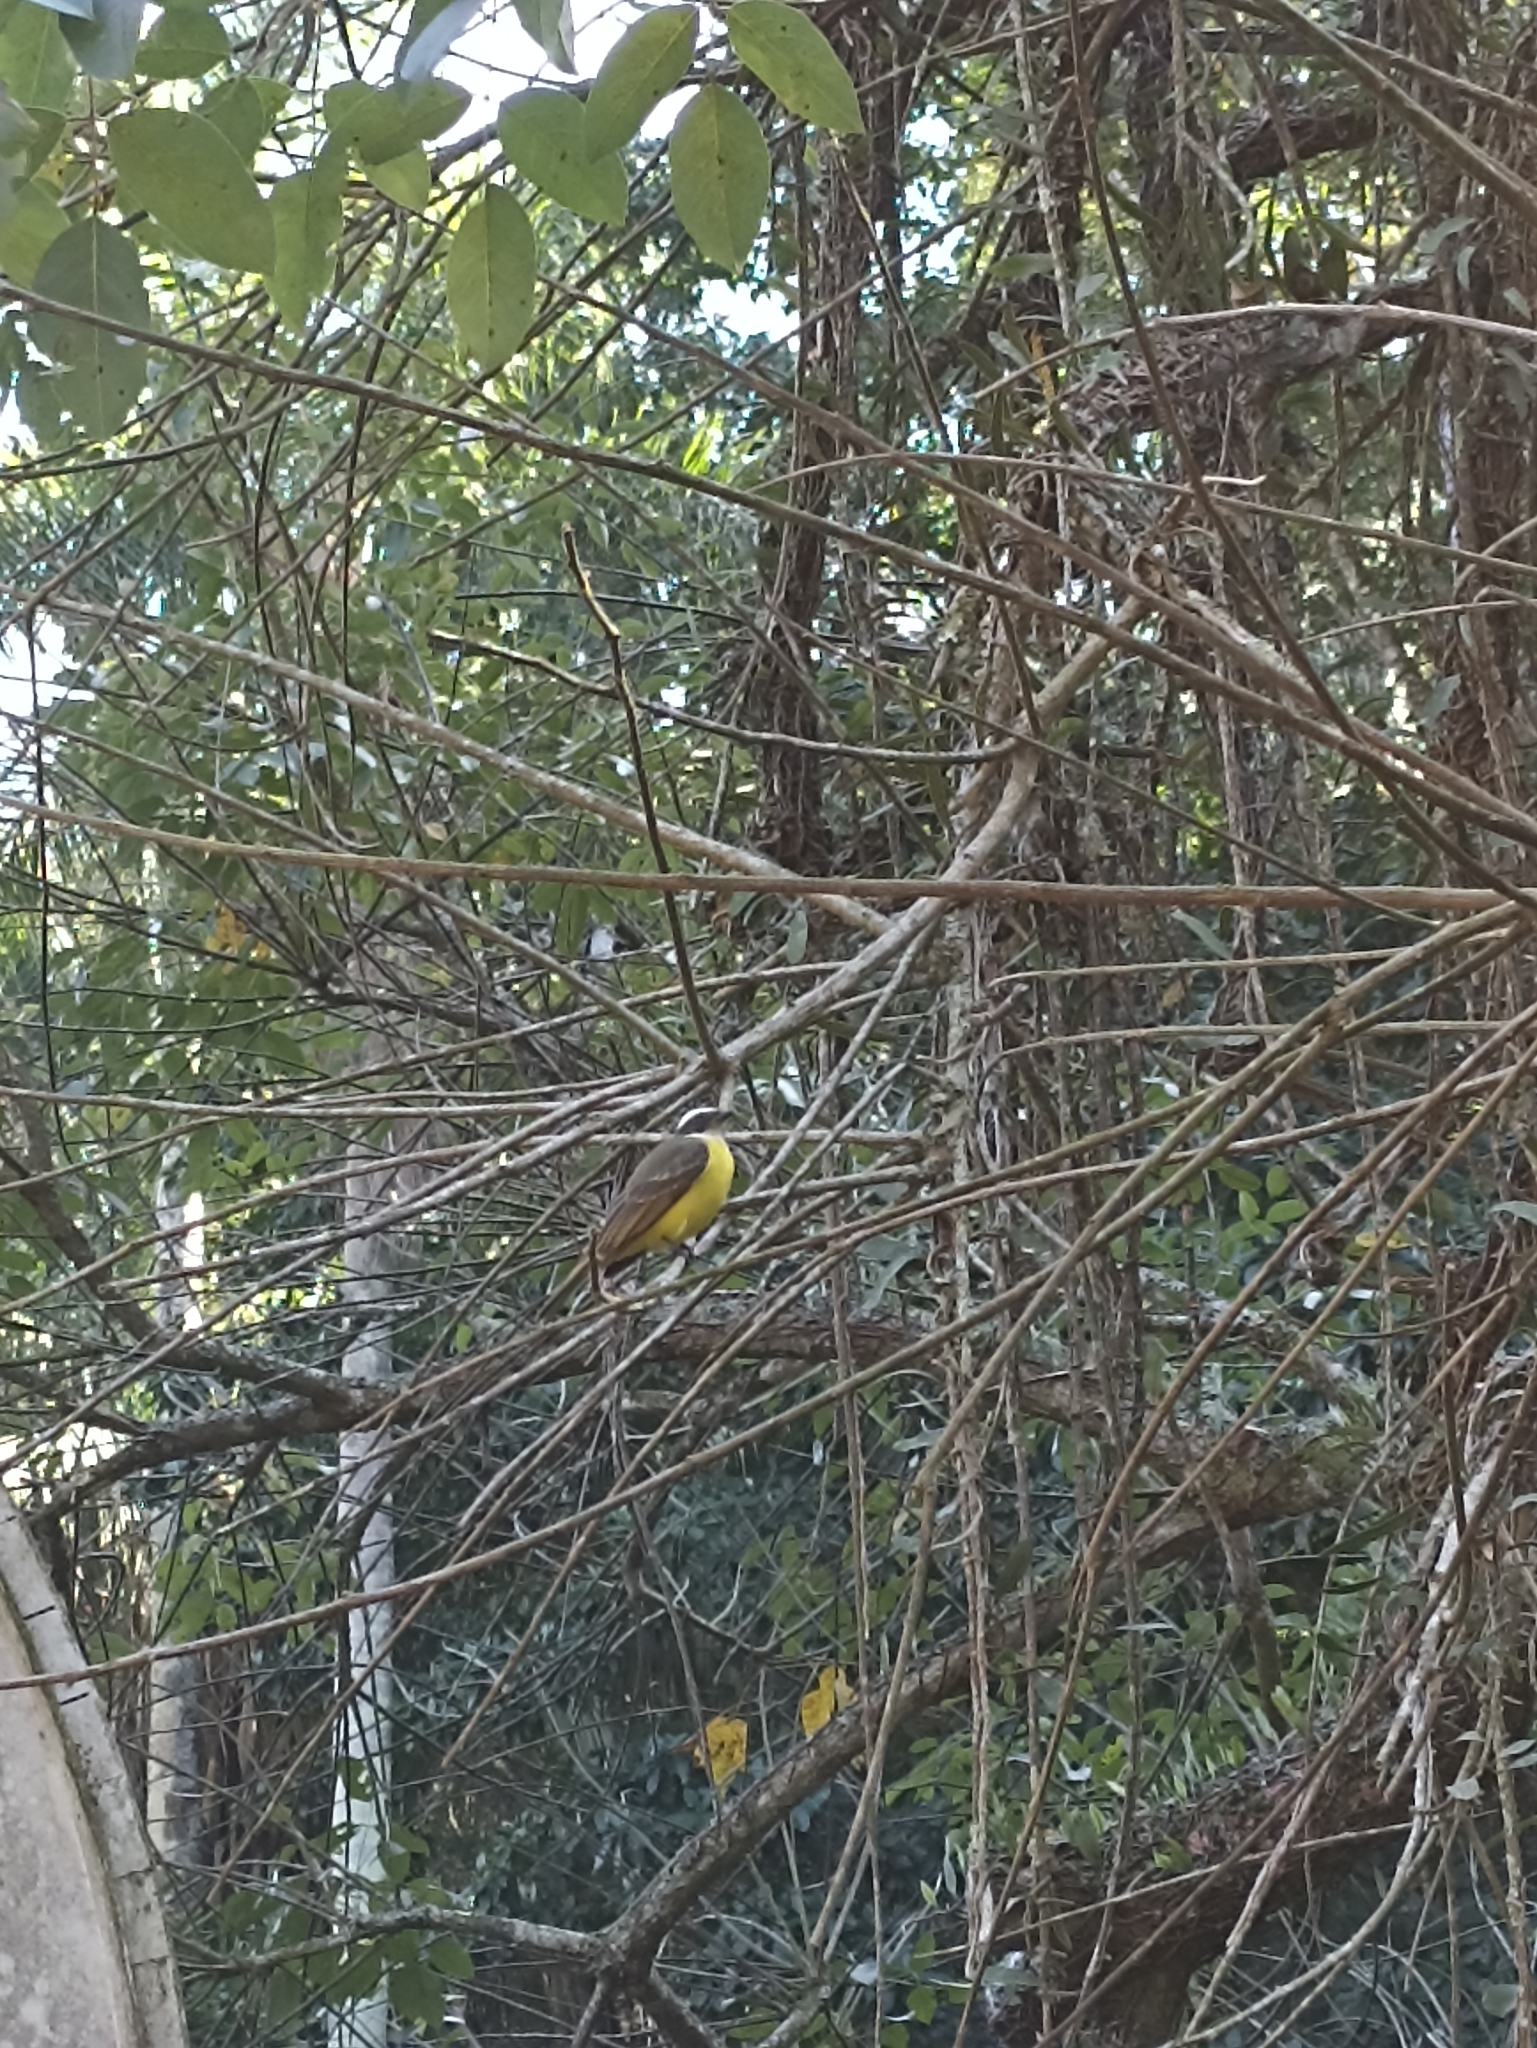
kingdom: Animalia
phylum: Chordata
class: Aves
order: Passeriformes
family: Tyrannidae
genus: Myiozetetes
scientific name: Myiozetetes similis
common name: Social flycatcher
